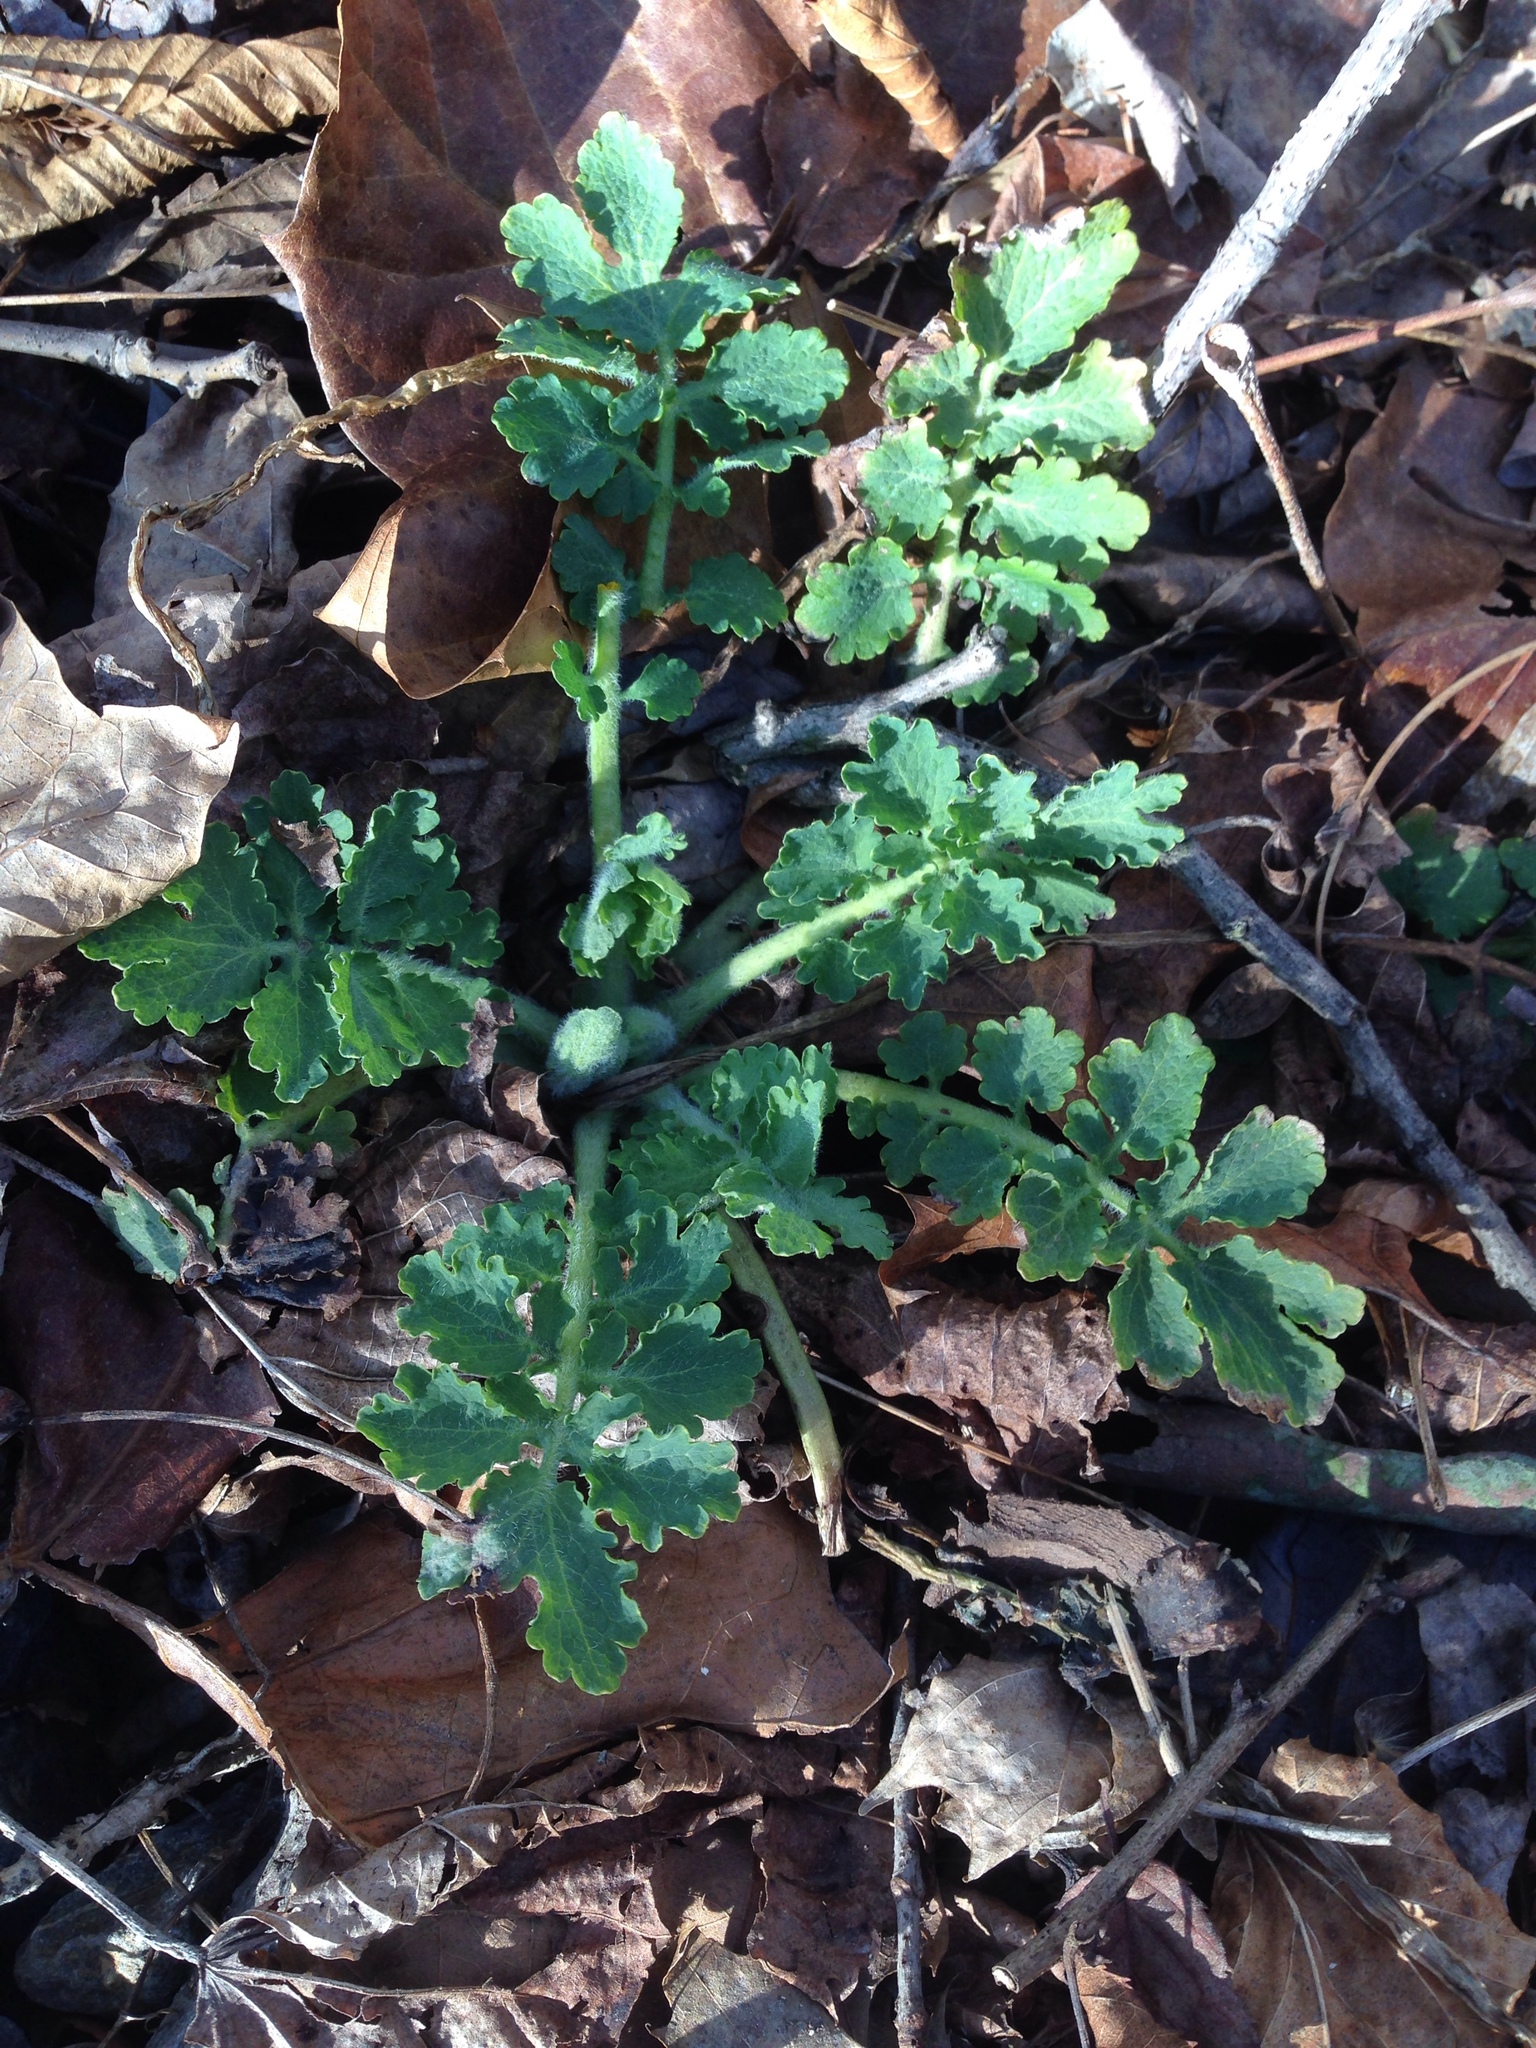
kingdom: Plantae
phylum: Tracheophyta
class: Magnoliopsida
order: Ranunculales
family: Papaveraceae
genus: Chelidonium
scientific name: Chelidonium majus
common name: Greater celandine
